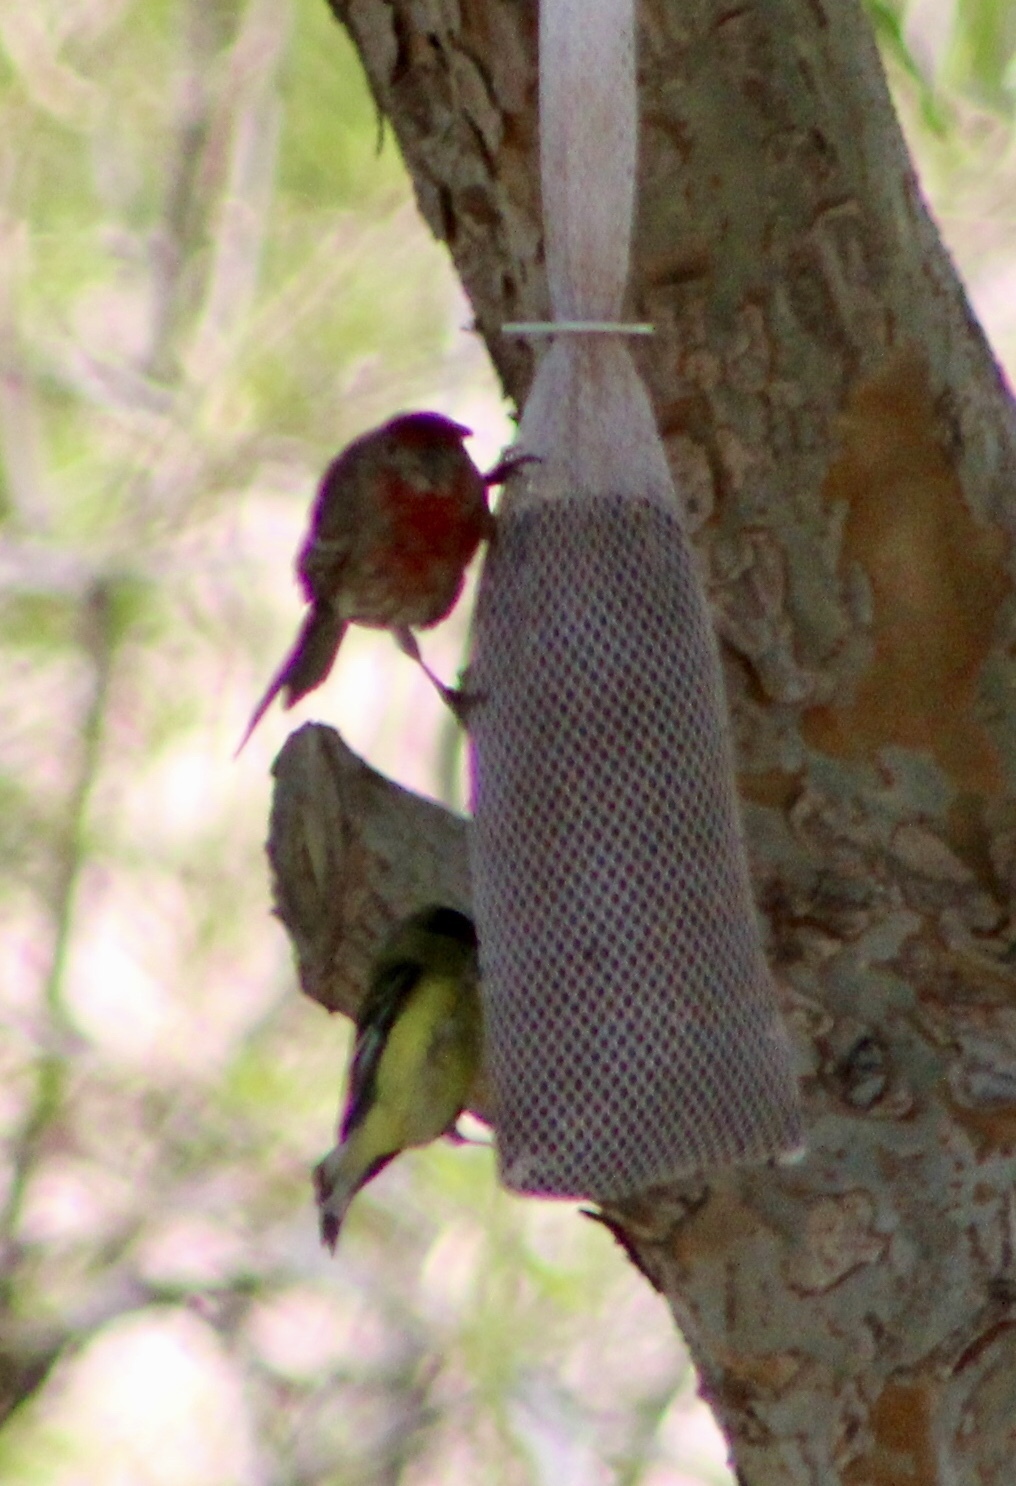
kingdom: Animalia
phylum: Chordata
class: Aves
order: Passeriformes
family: Fringillidae
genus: Spinus
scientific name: Spinus psaltria
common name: Lesser goldfinch
